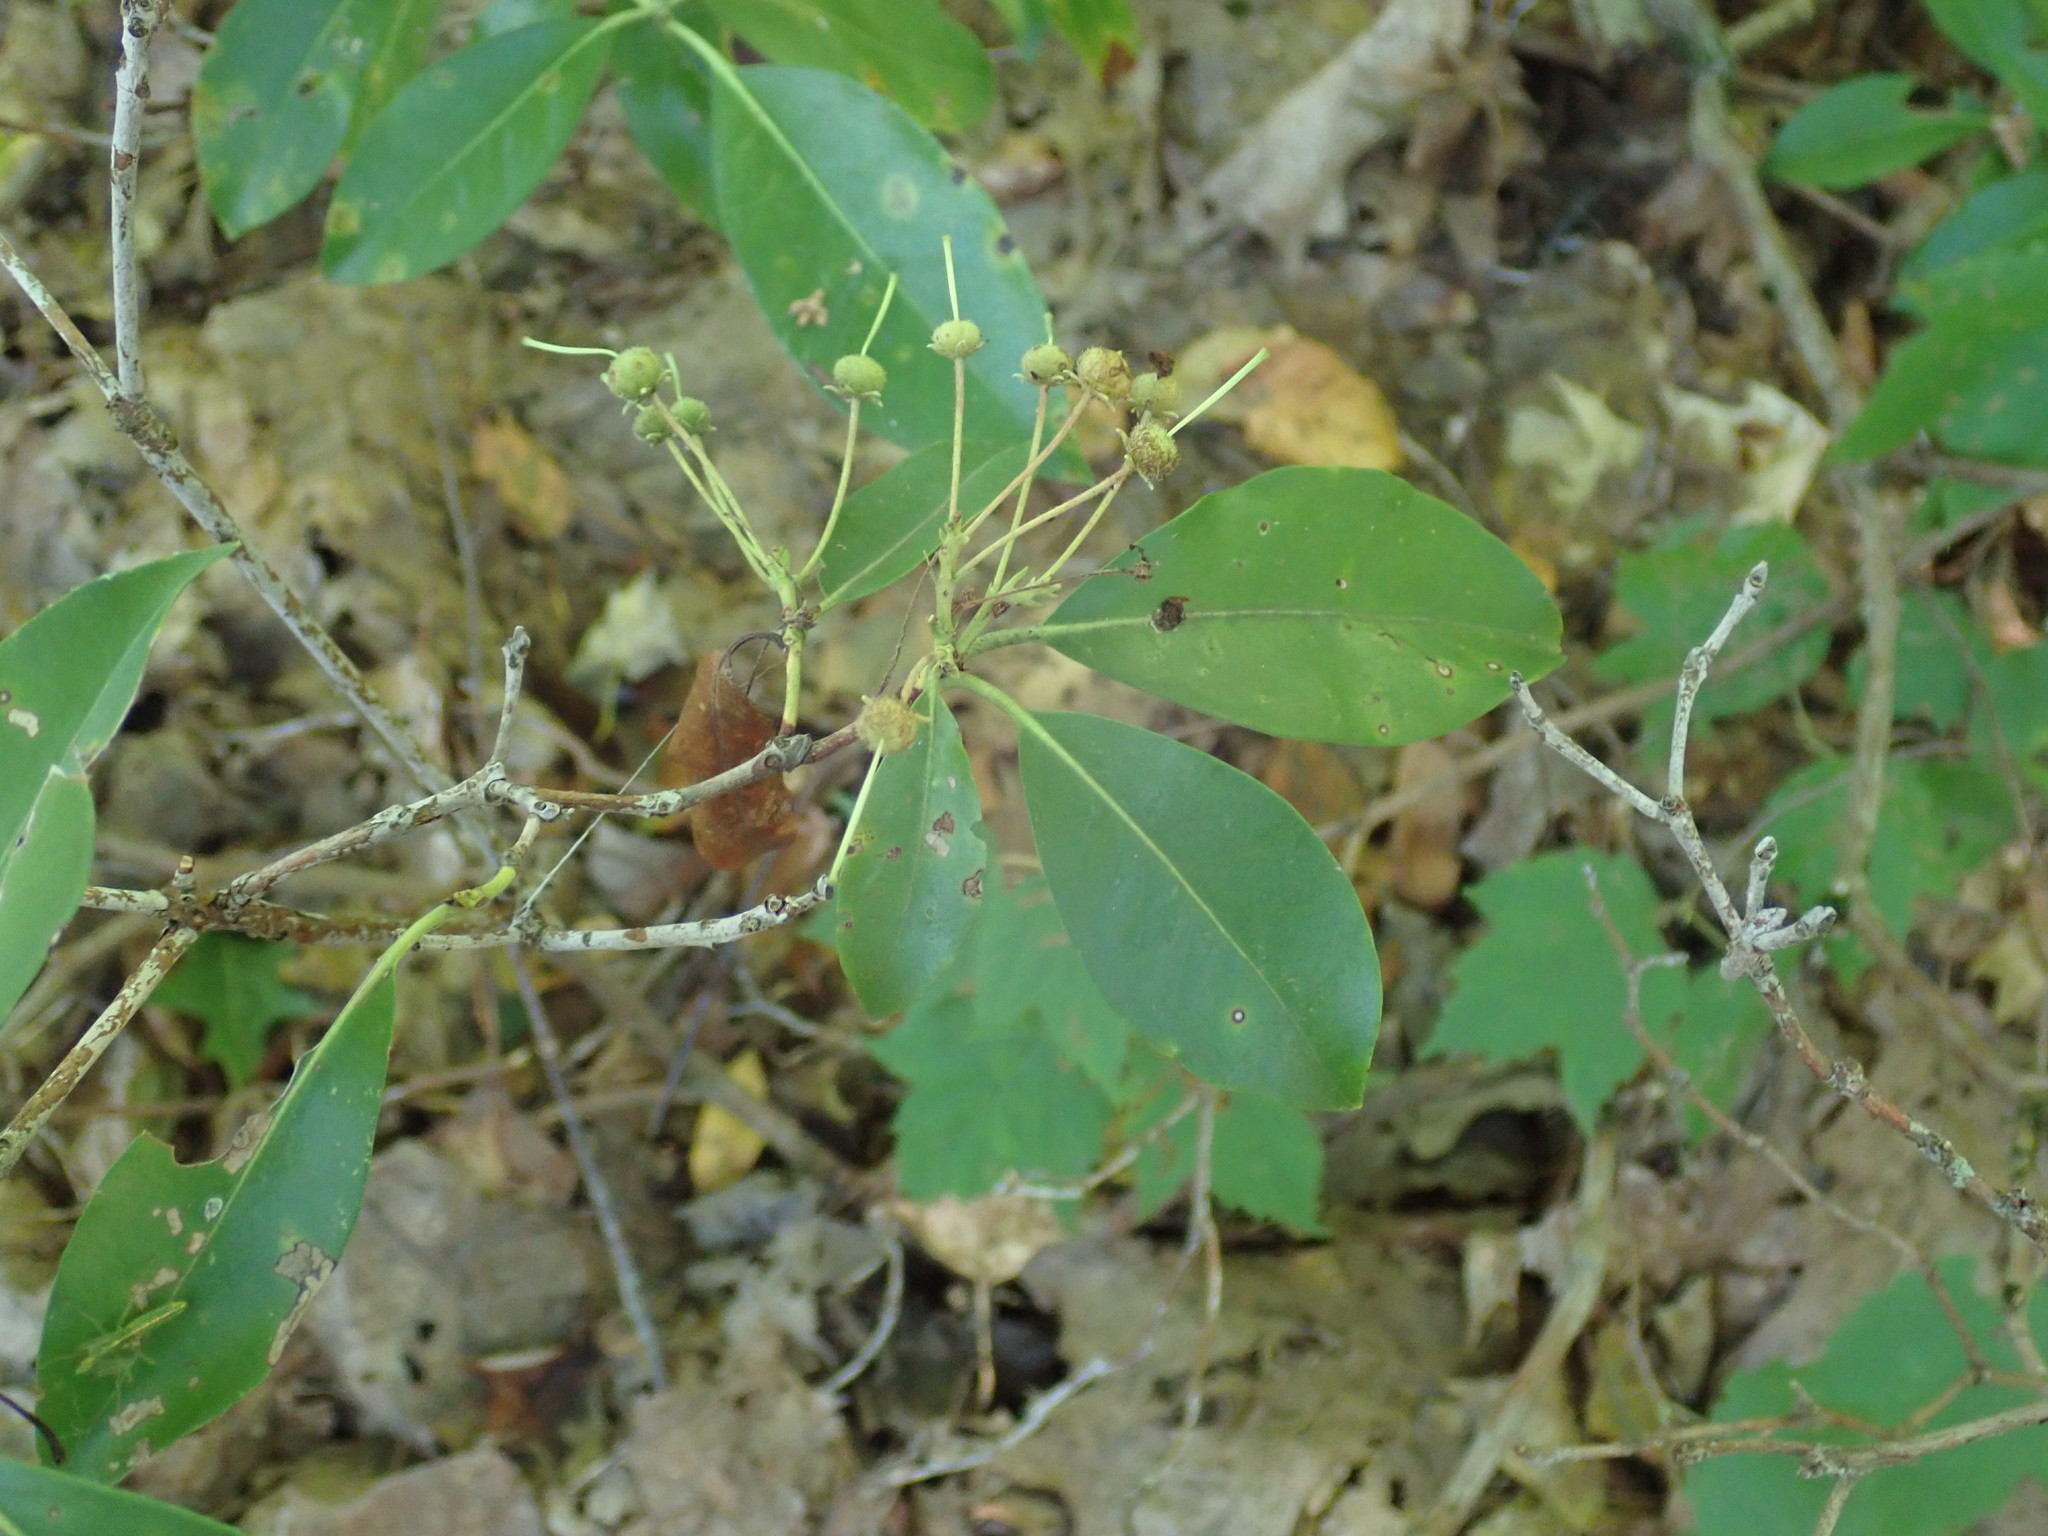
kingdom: Plantae
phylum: Tracheophyta
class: Magnoliopsida
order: Ericales
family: Ericaceae
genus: Kalmia
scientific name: Kalmia latifolia
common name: Mountain-laurel
